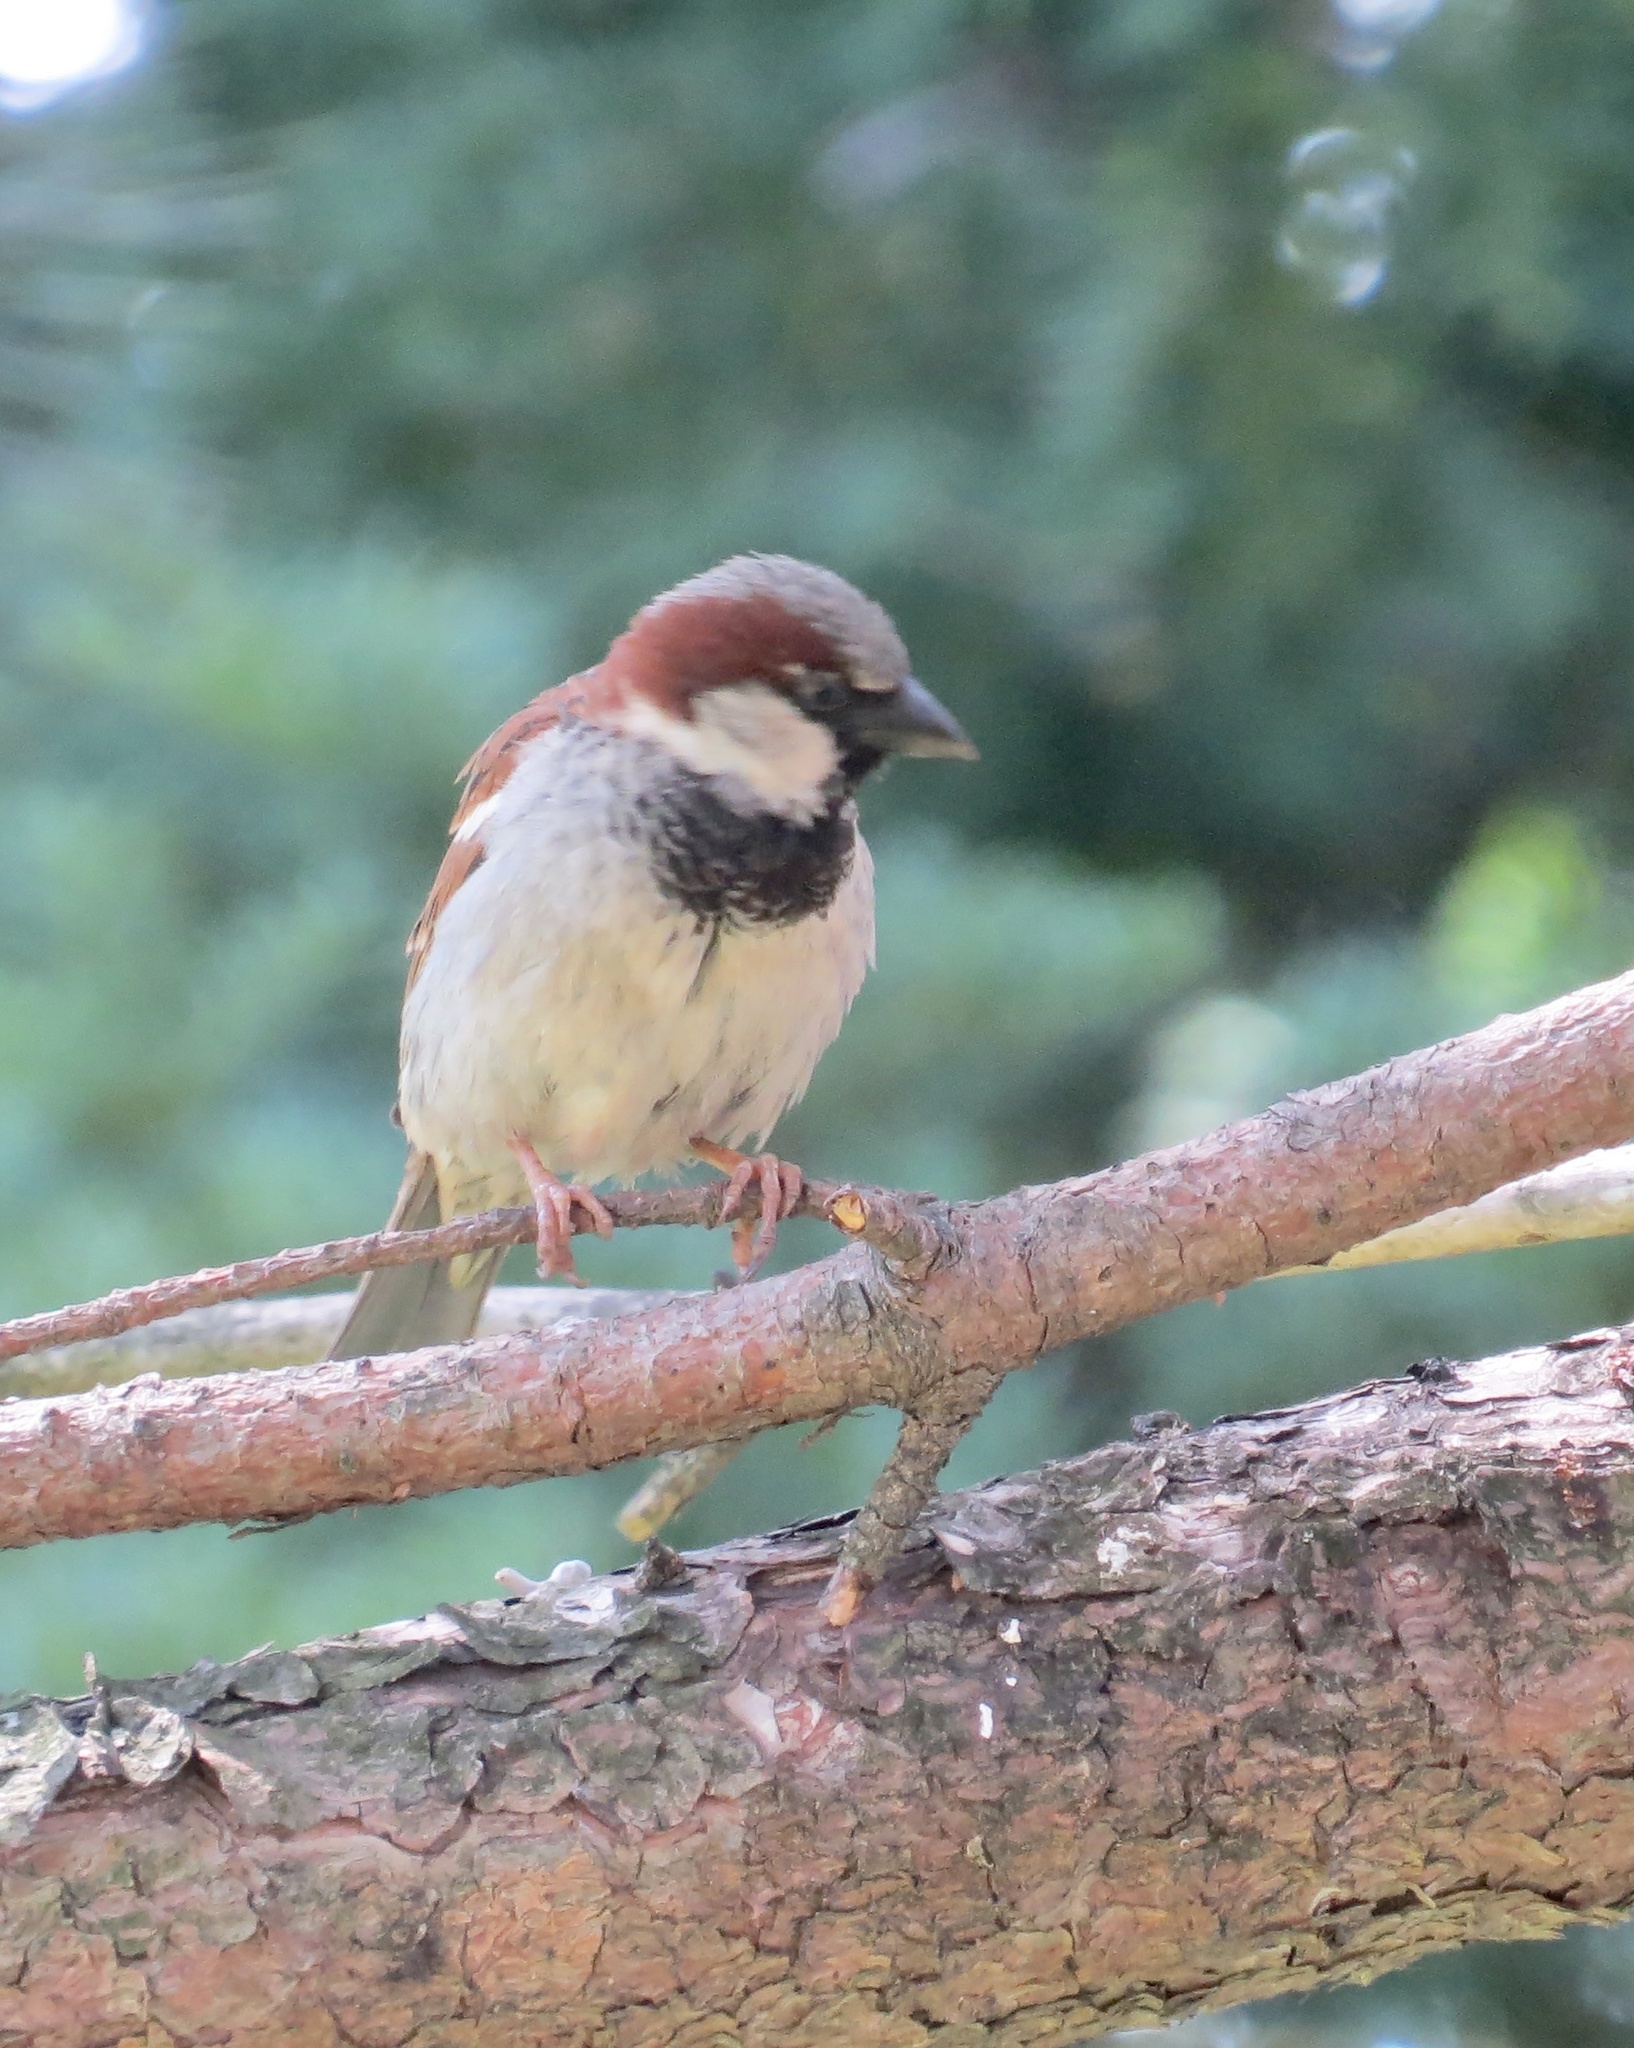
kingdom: Animalia
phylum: Chordata
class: Aves
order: Passeriformes
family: Passeridae
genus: Passer
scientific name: Passer domesticus
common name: House sparrow
